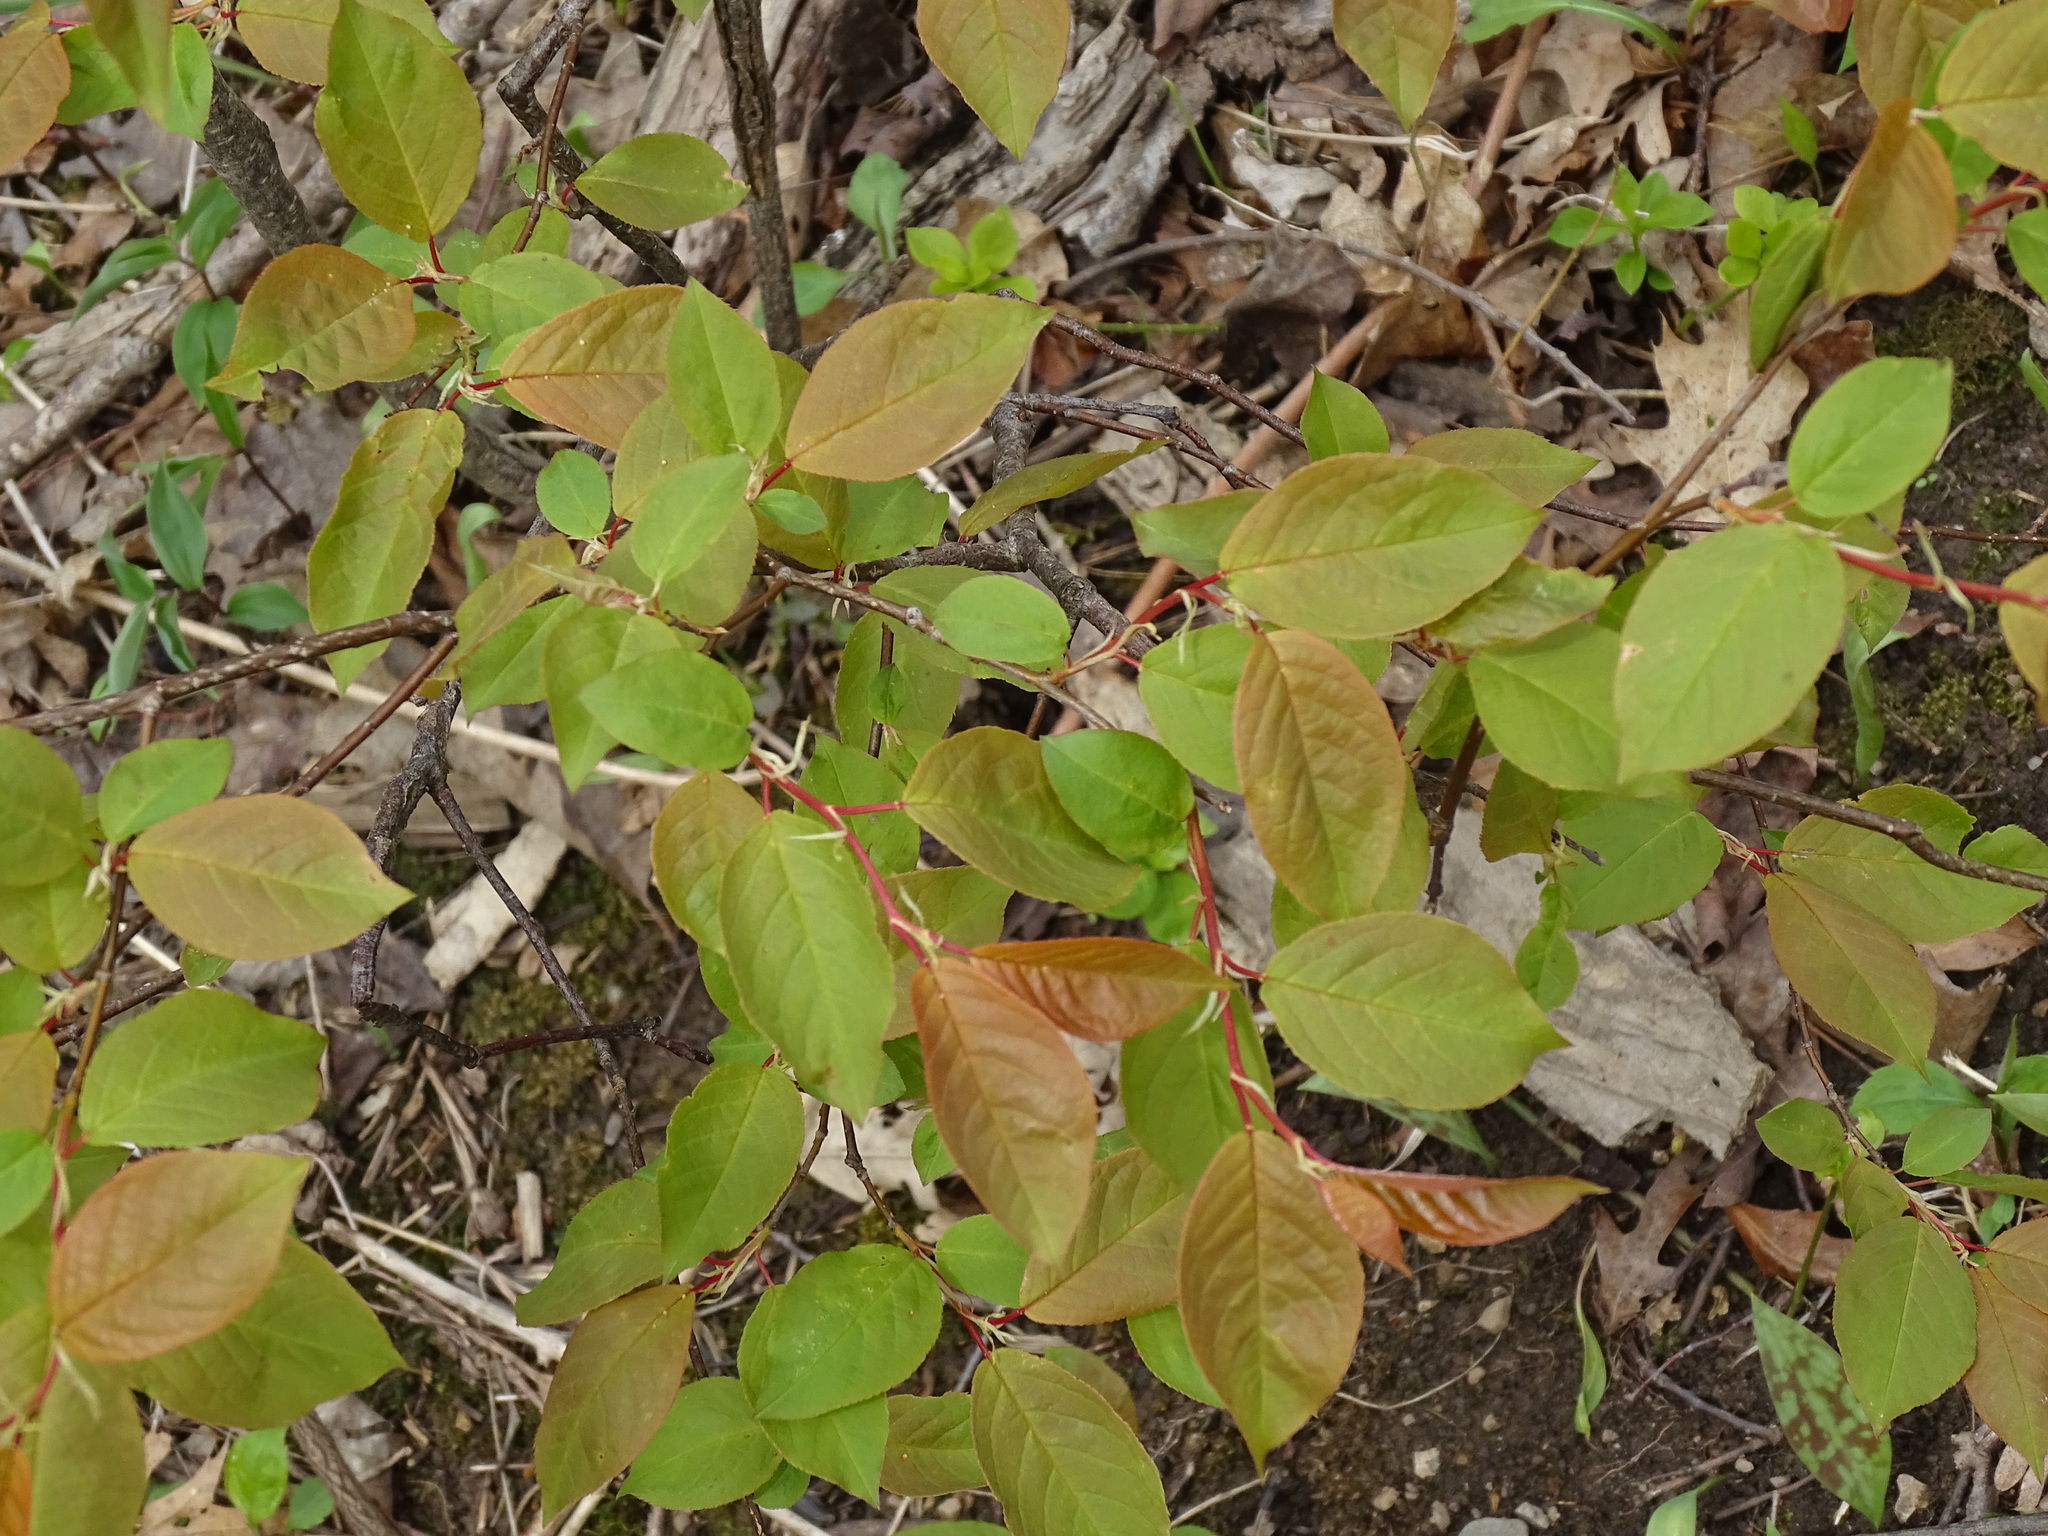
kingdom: Plantae
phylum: Tracheophyta
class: Magnoliopsida
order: Rosales
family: Rosaceae
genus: Prunus
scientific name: Prunus virginiana
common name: Chokecherry
